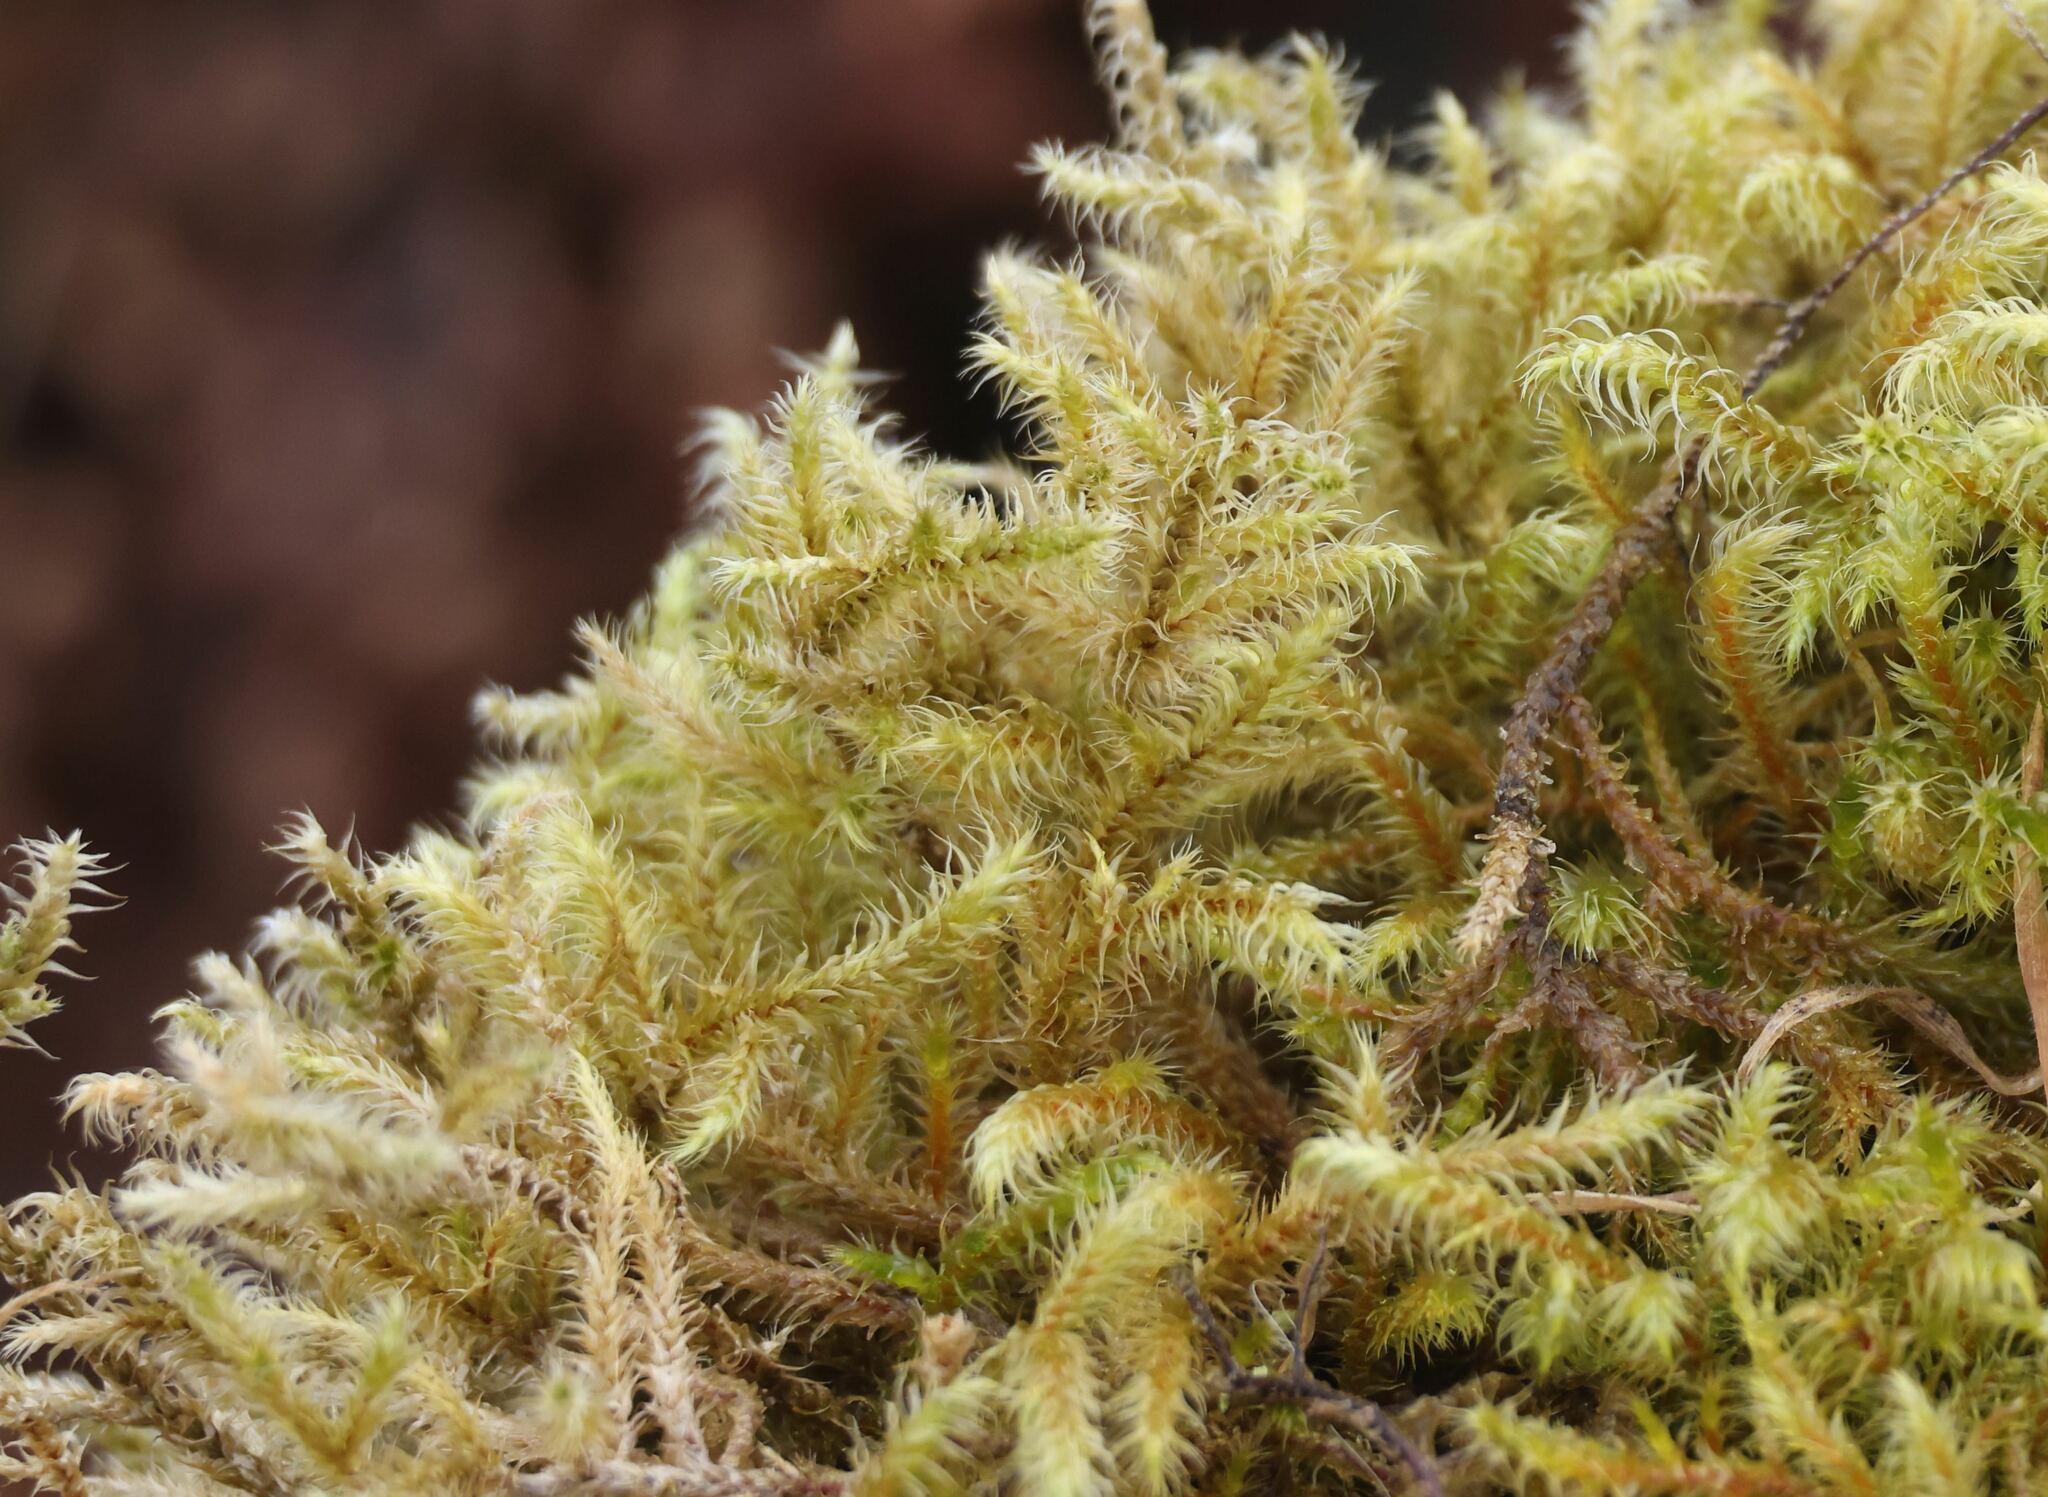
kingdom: Plantae
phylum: Bryophyta
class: Bryopsida
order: Hypnales
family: Hylocomiaceae
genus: Rhytidiadelphus
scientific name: Rhytidiadelphus loreus
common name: Lanky moss
